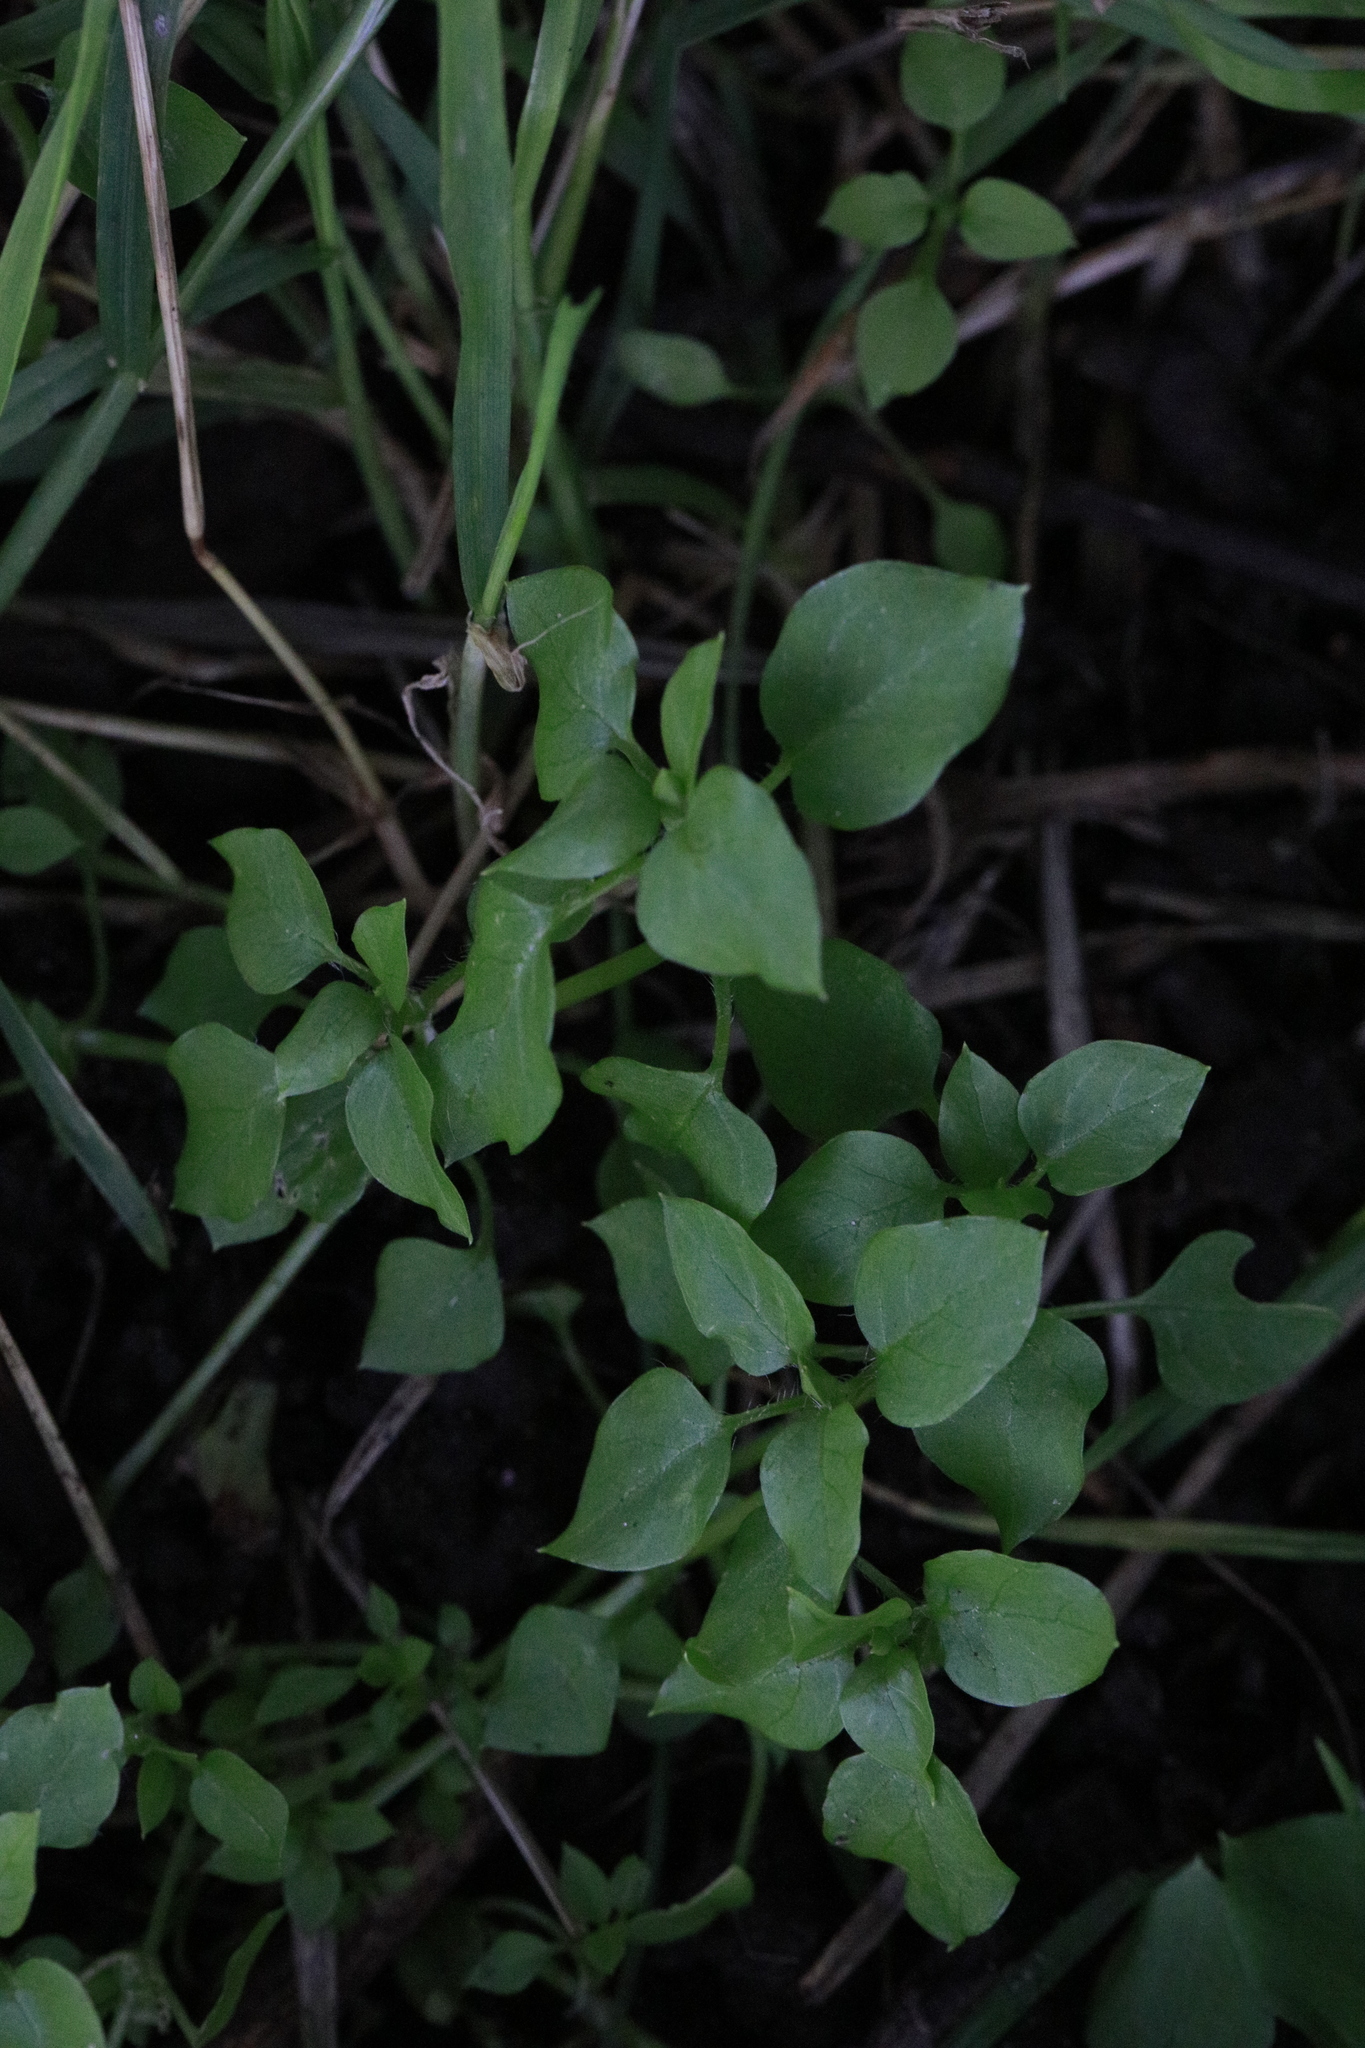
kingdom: Plantae
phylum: Tracheophyta
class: Magnoliopsida
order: Caryophyllales
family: Caryophyllaceae
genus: Stellaria
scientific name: Stellaria media
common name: Common chickweed
